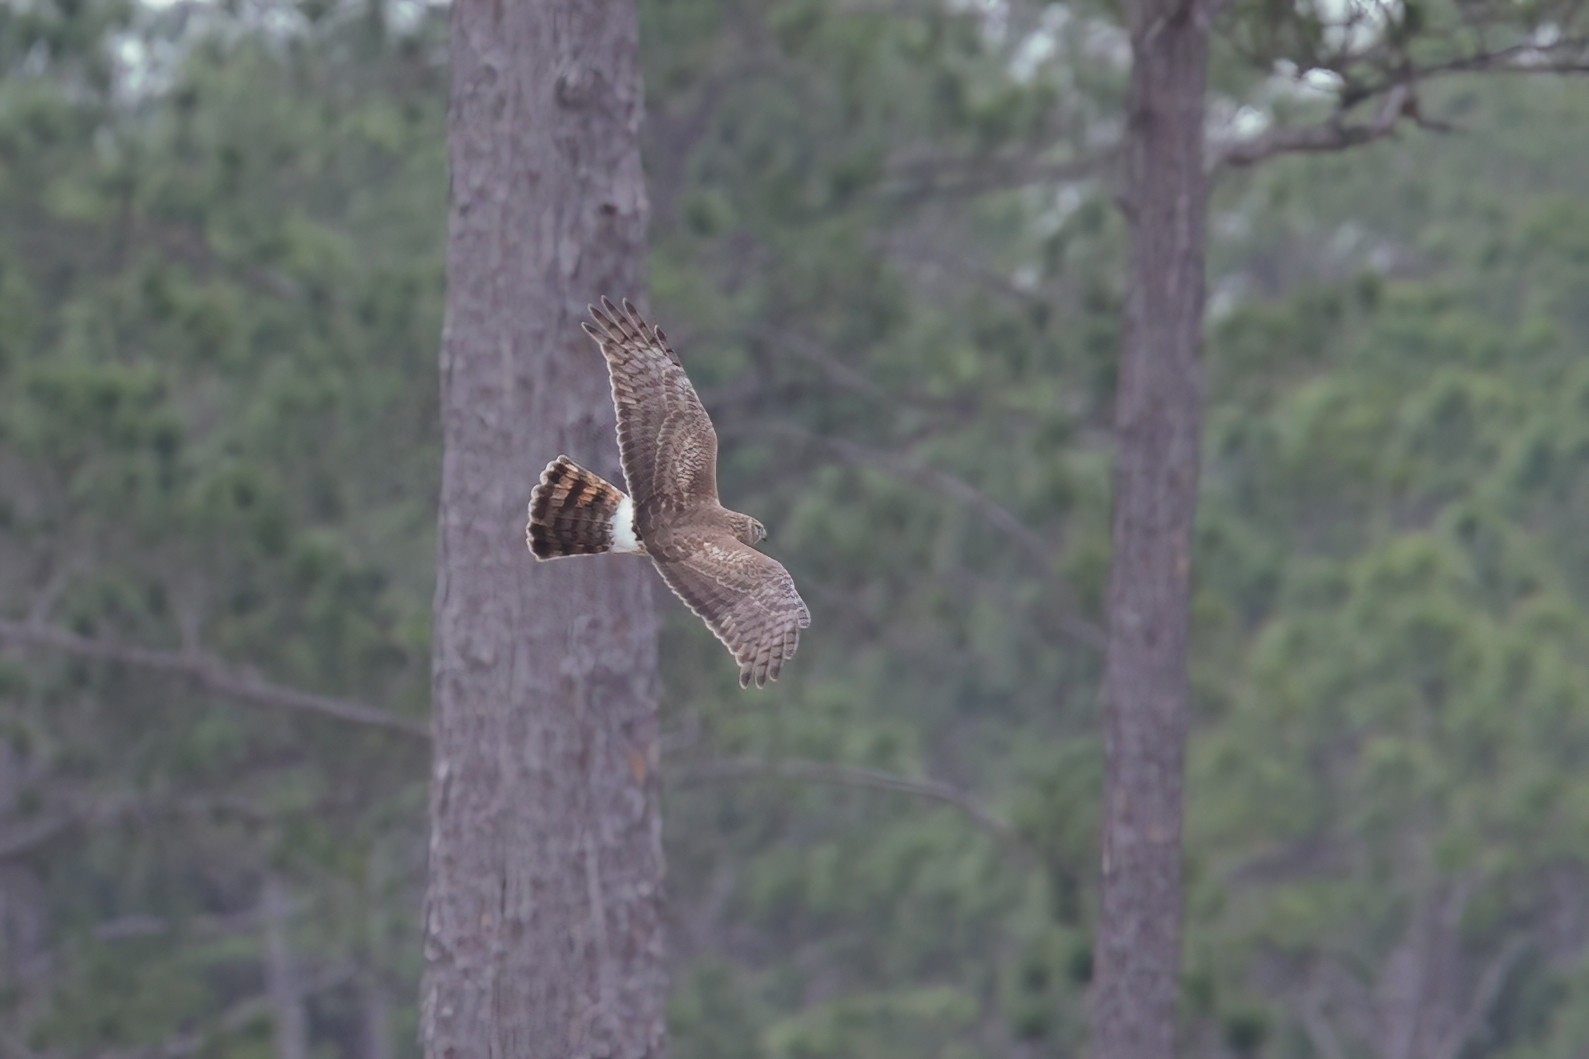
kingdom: Animalia
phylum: Chordata
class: Aves
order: Accipitriformes
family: Accipitridae
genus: Circus
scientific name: Circus cyaneus
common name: Hen harrier
